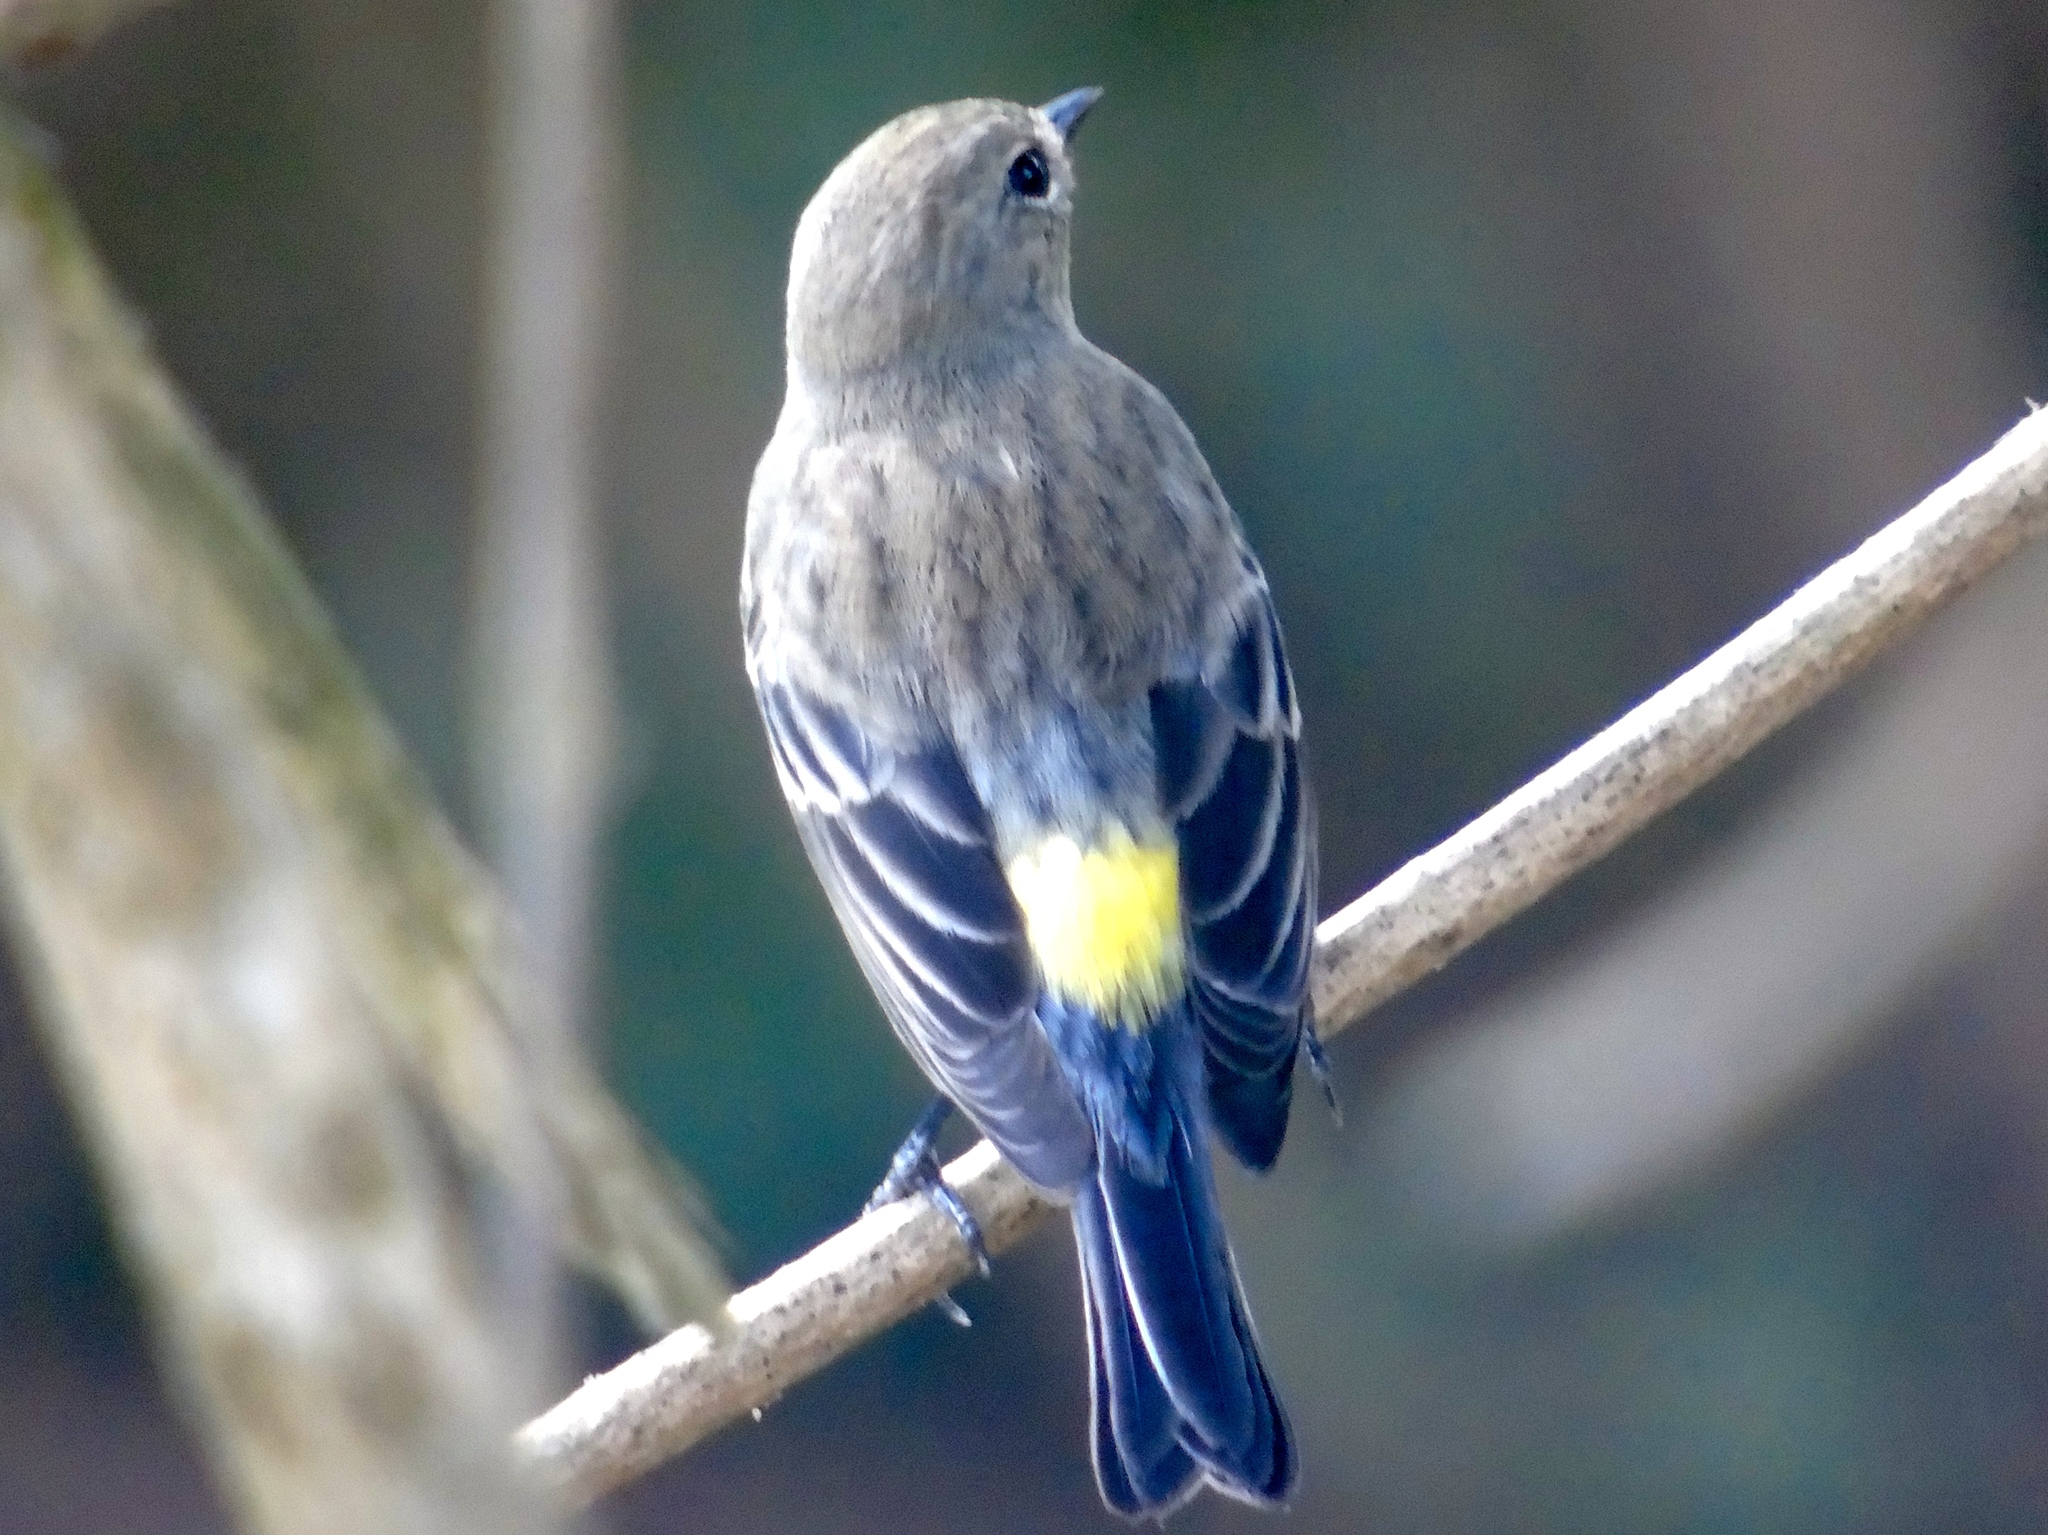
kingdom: Animalia
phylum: Chordata
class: Aves
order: Passeriformes
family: Parulidae
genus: Setophaga
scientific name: Setophaga coronata
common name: Myrtle warbler
